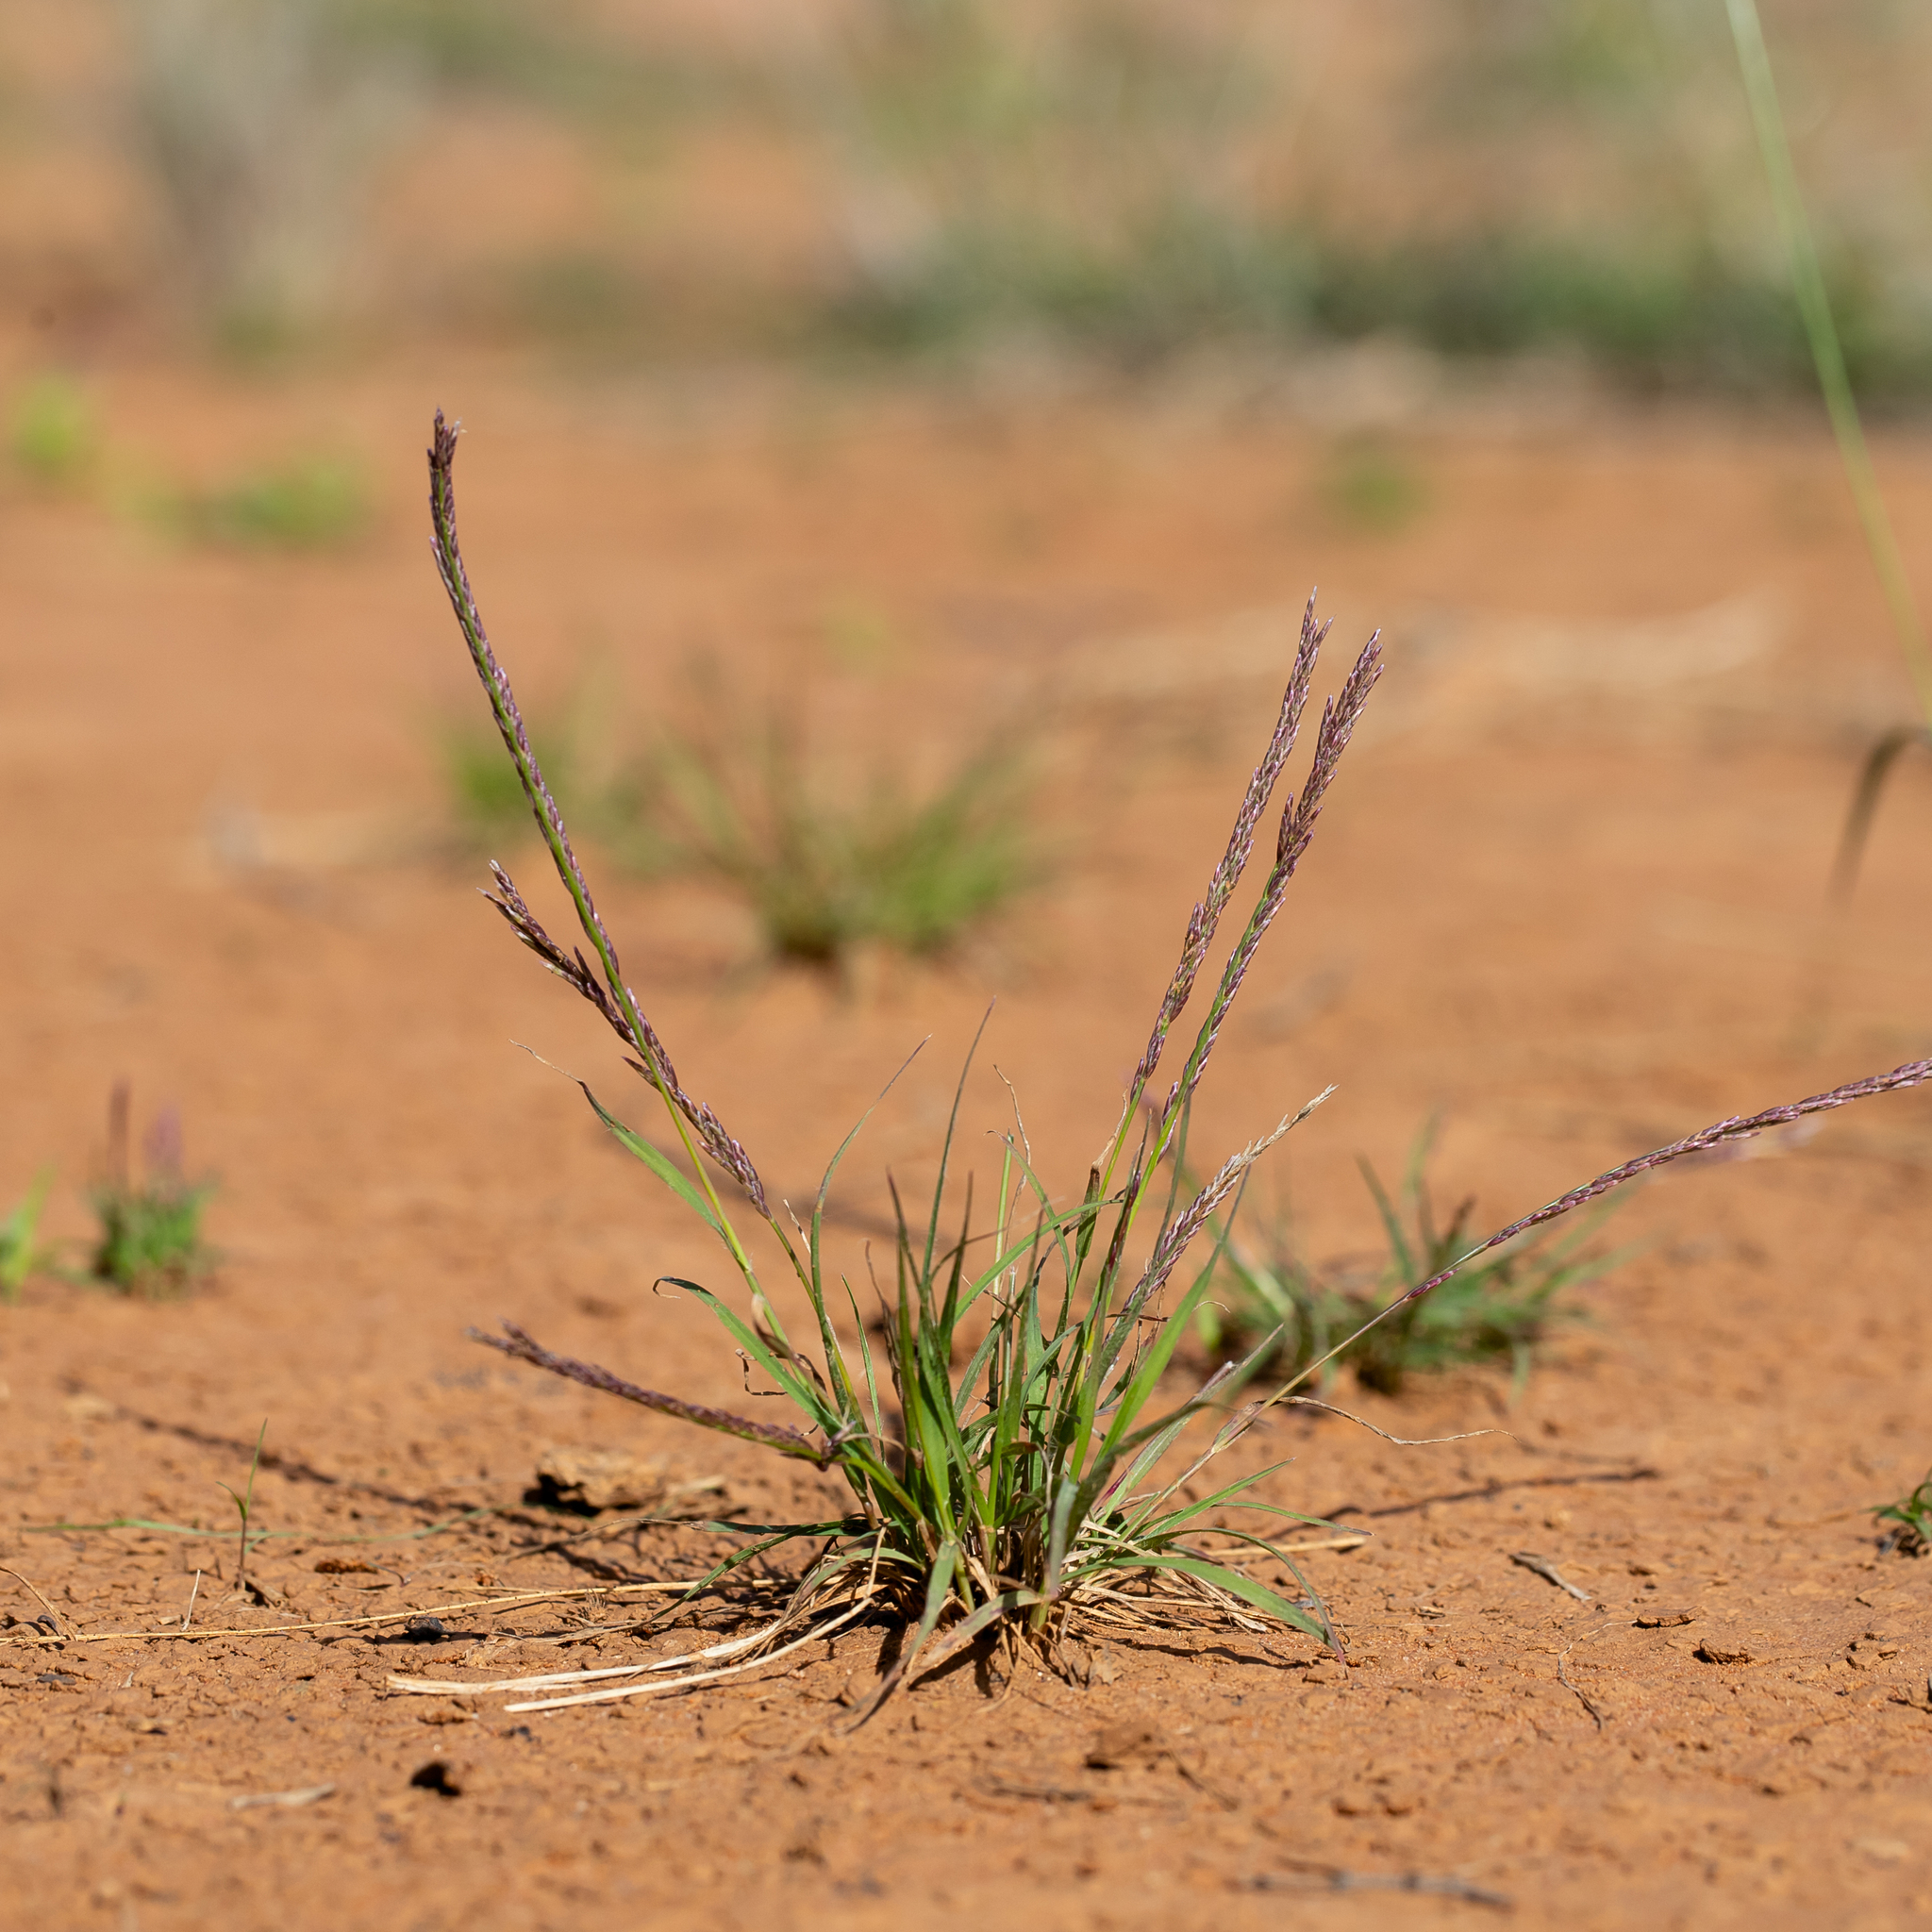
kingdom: Plantae
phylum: Tracheophyta
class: Liliopsida
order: Poales
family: Poaceae
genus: Tripogonella
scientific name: Tripogonella loliiformis
